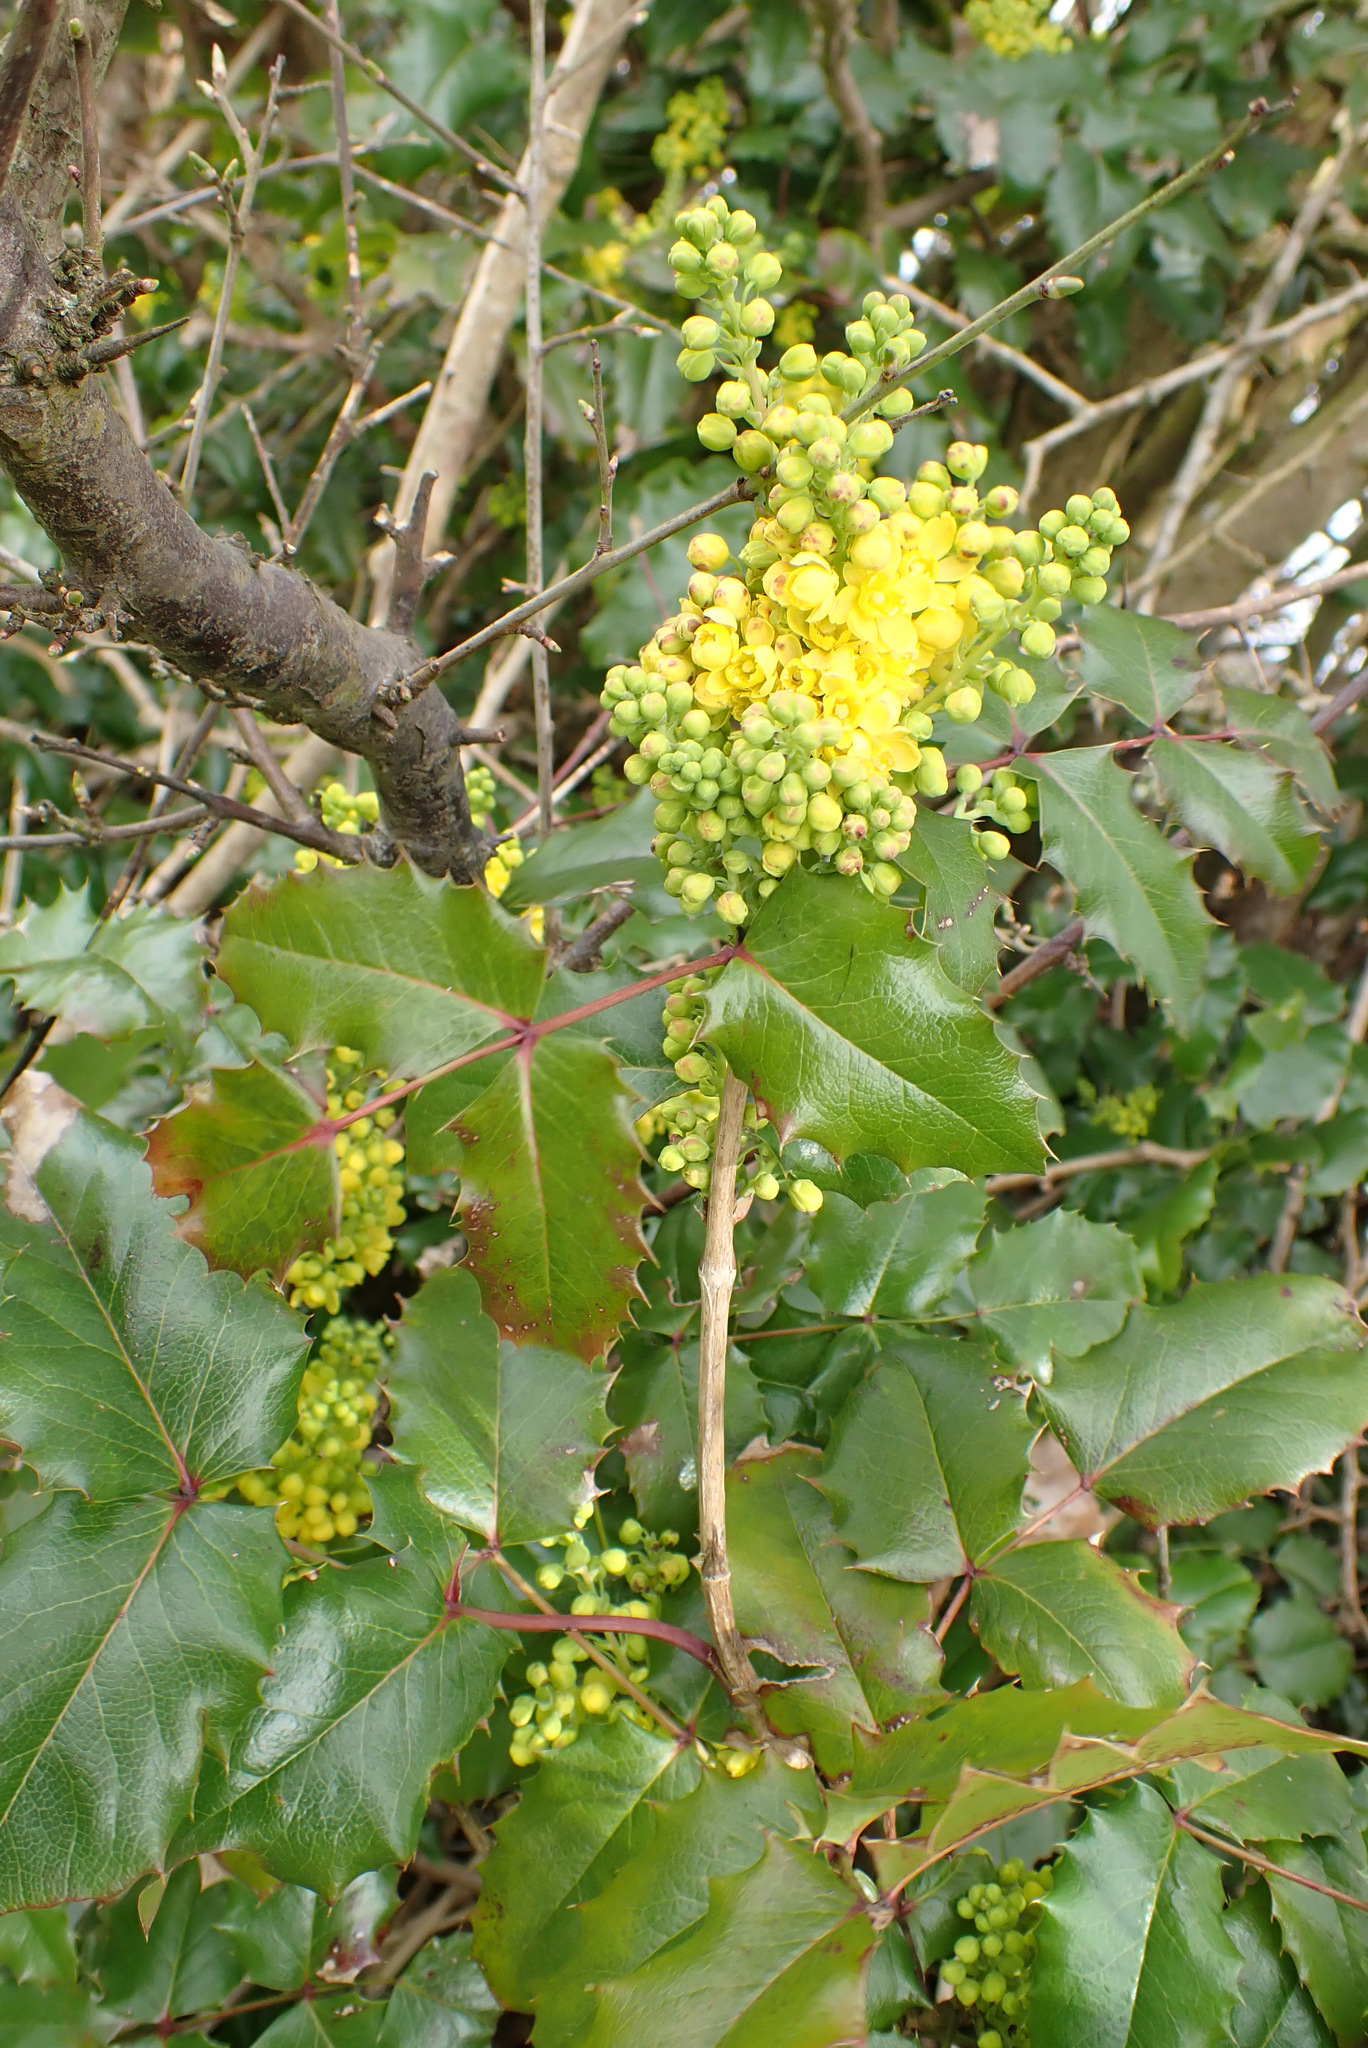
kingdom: Plantae
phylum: Tracheophyta
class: Magnoliopsida
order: Ranunculales
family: Berberidaceae
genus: Mahonia
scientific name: Mahonia aquifolium
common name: Oregon-grape
